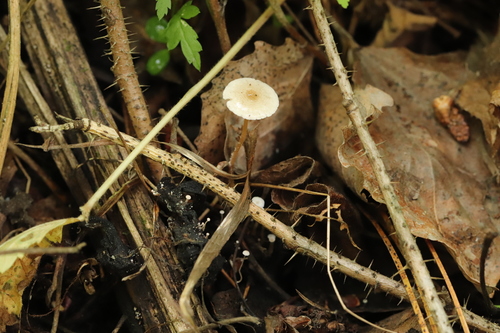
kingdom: Fungi
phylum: Basidiomycota
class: Agaricomycetes
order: Agaricales
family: Tricholomataceae
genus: Collybia
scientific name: Collybia cirrhata
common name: Piggyback shanklet
